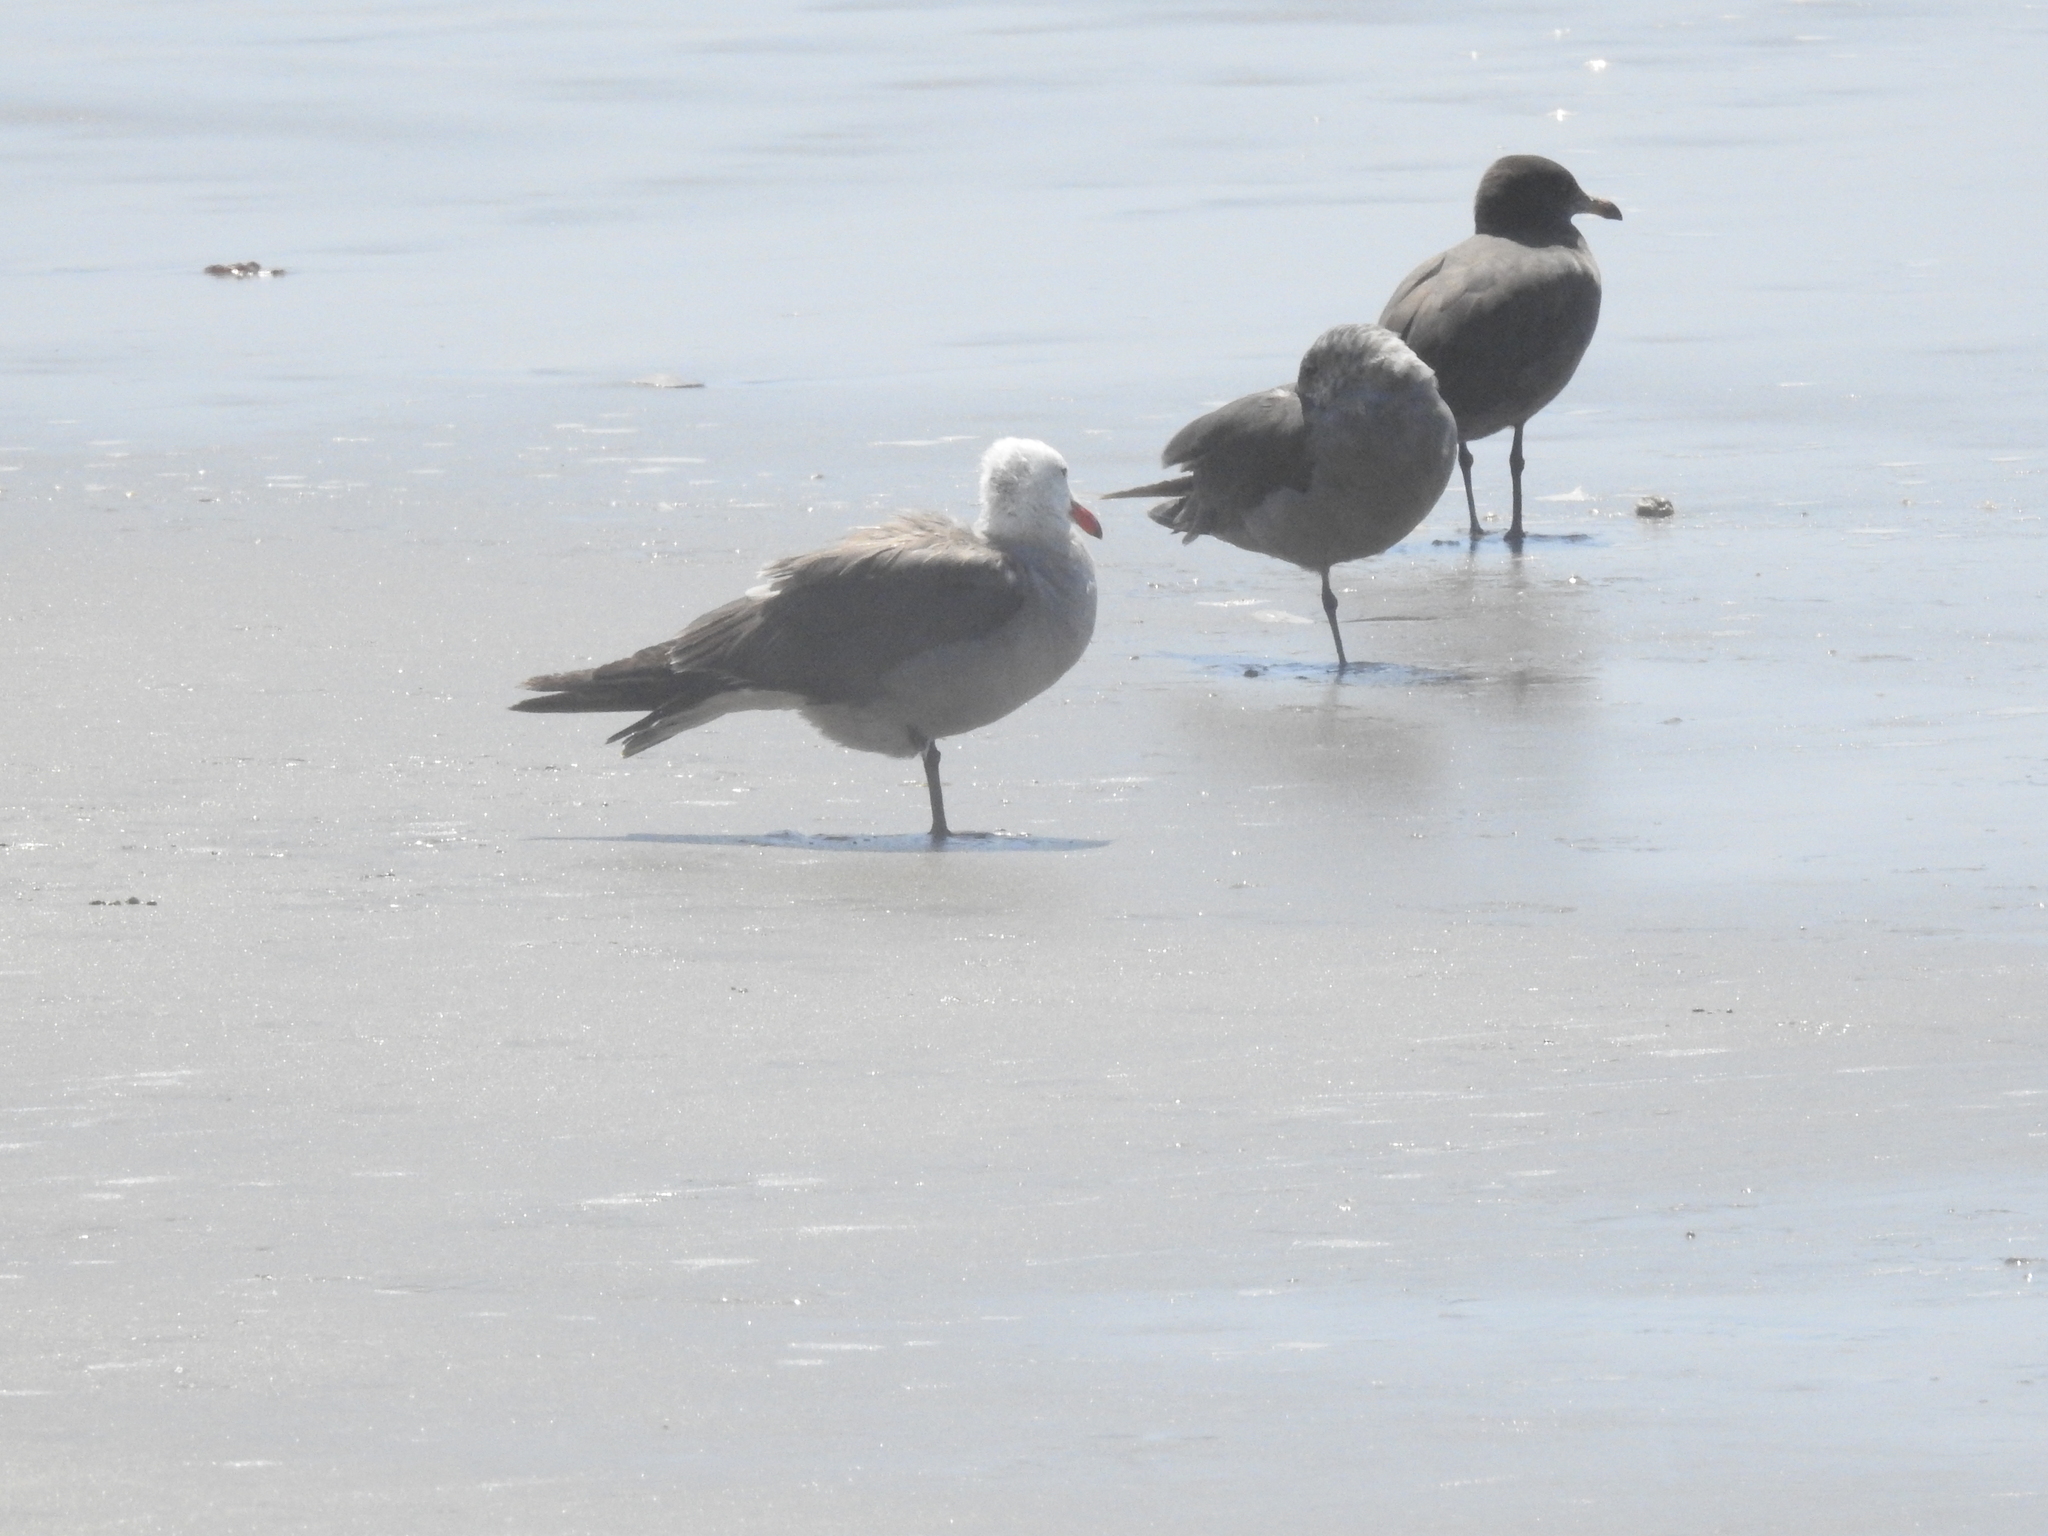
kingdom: Animalia
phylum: Chordata
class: Aves
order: Charadriiformes
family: Laridae
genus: Larus
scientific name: Larus heermanni
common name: Heermann's gull
